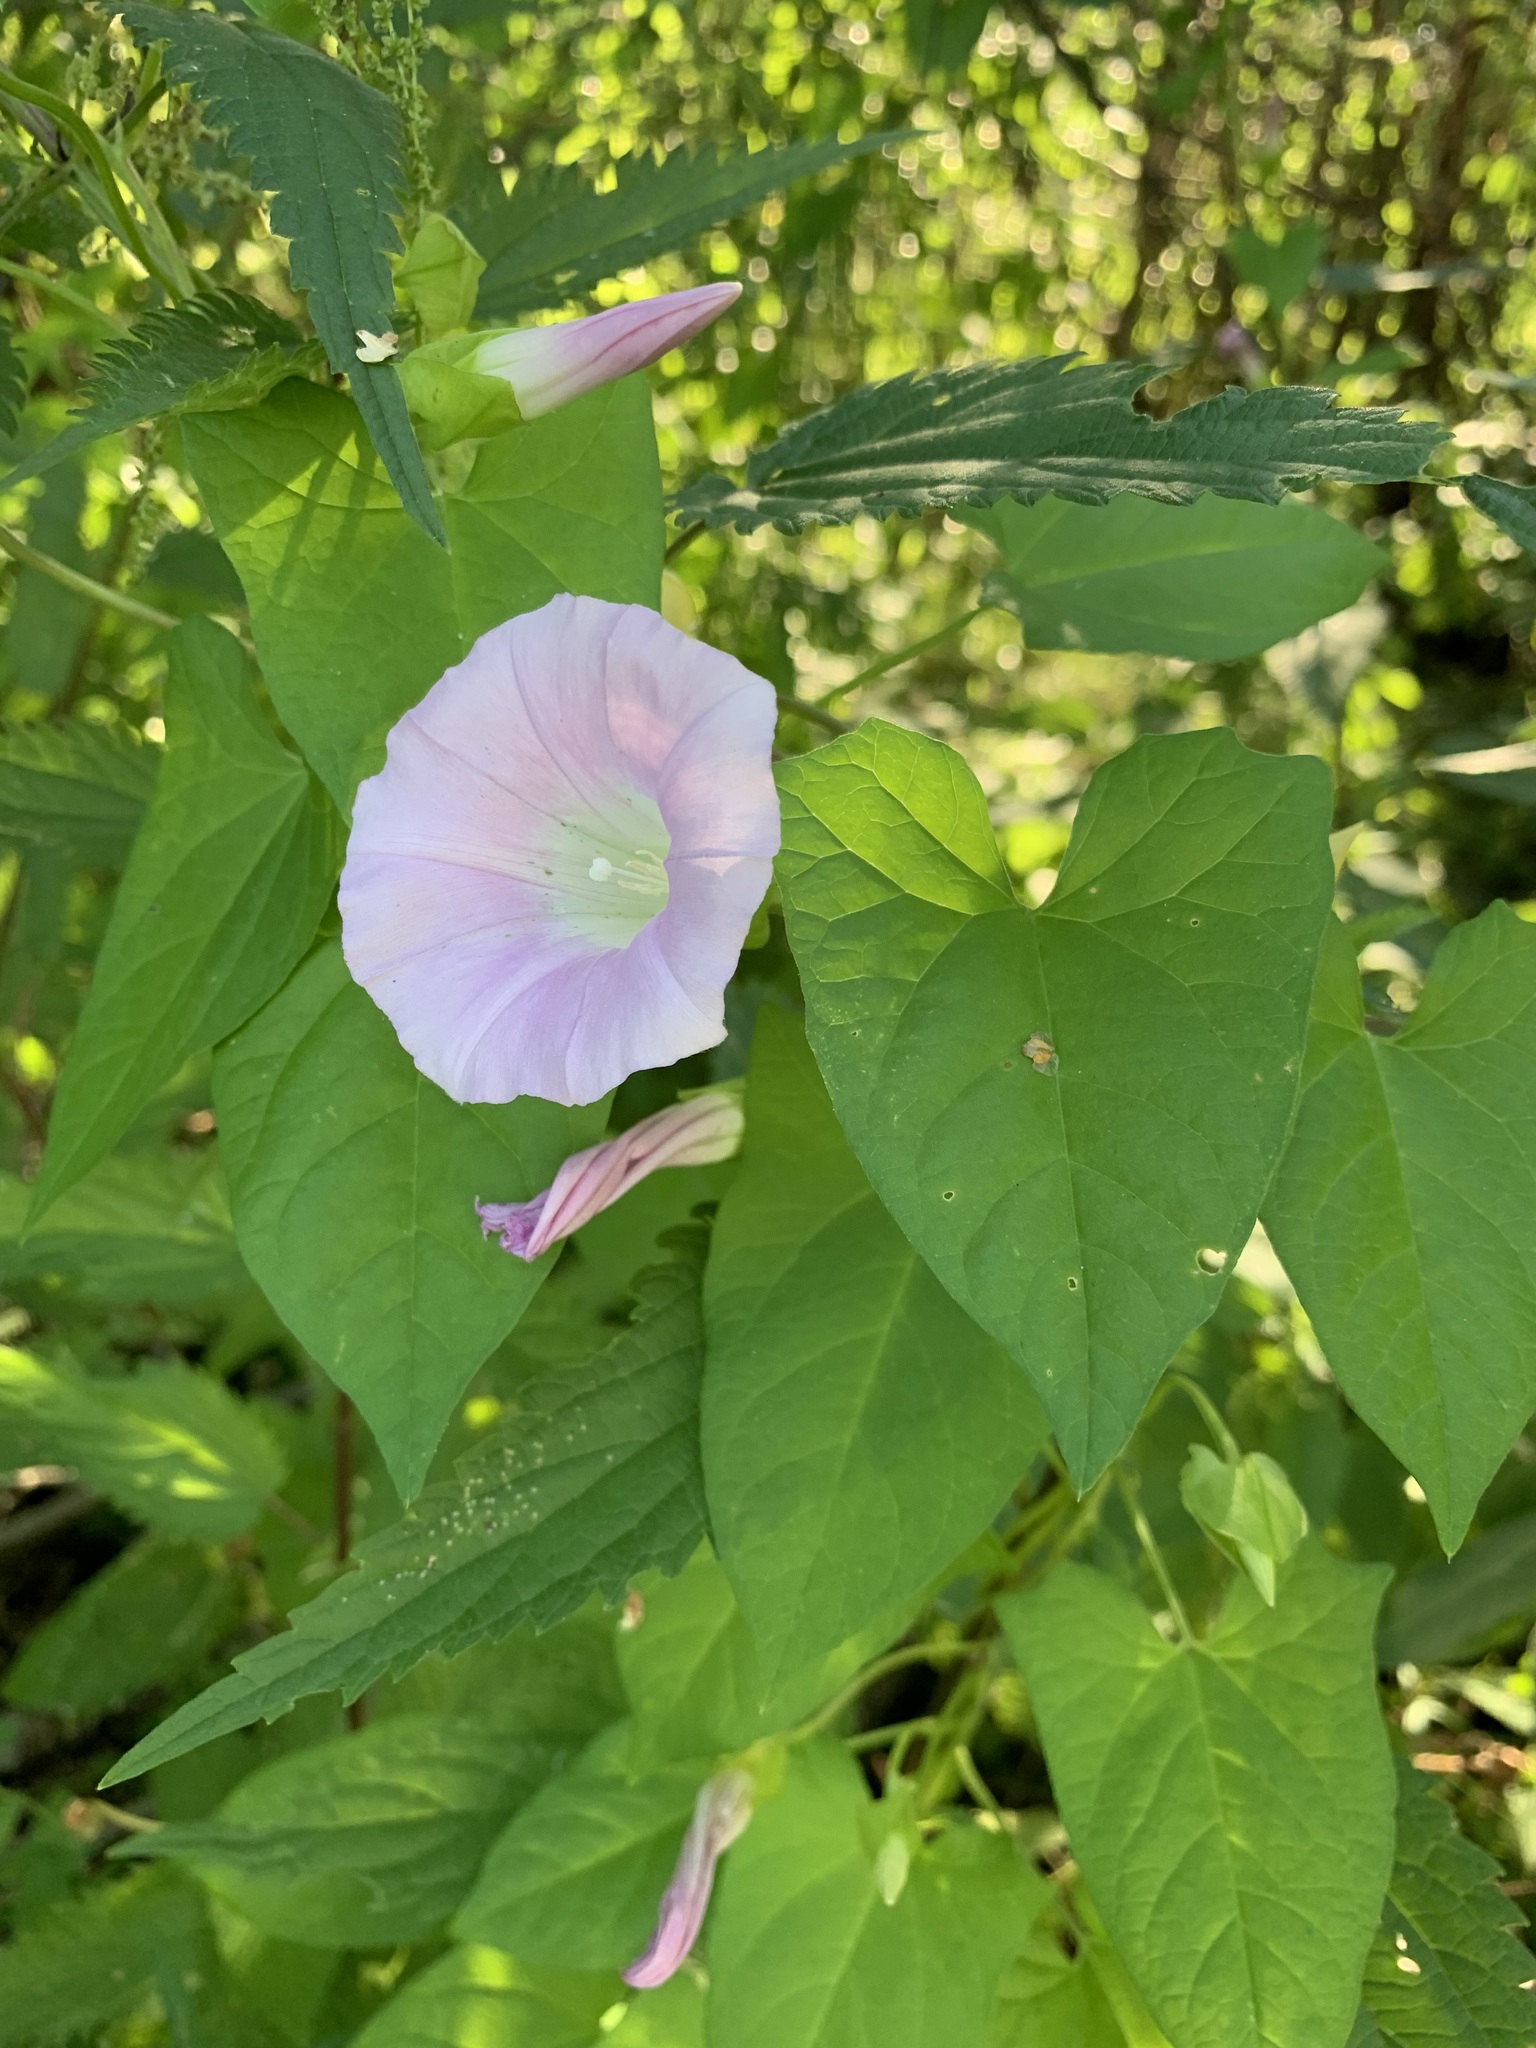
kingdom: Plantae
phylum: Tracheophyta
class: Magnoliopsida
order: Solanales
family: Convolvulaceae
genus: Calystegia
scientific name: Calystegia sepium
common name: Hedge bindweed
